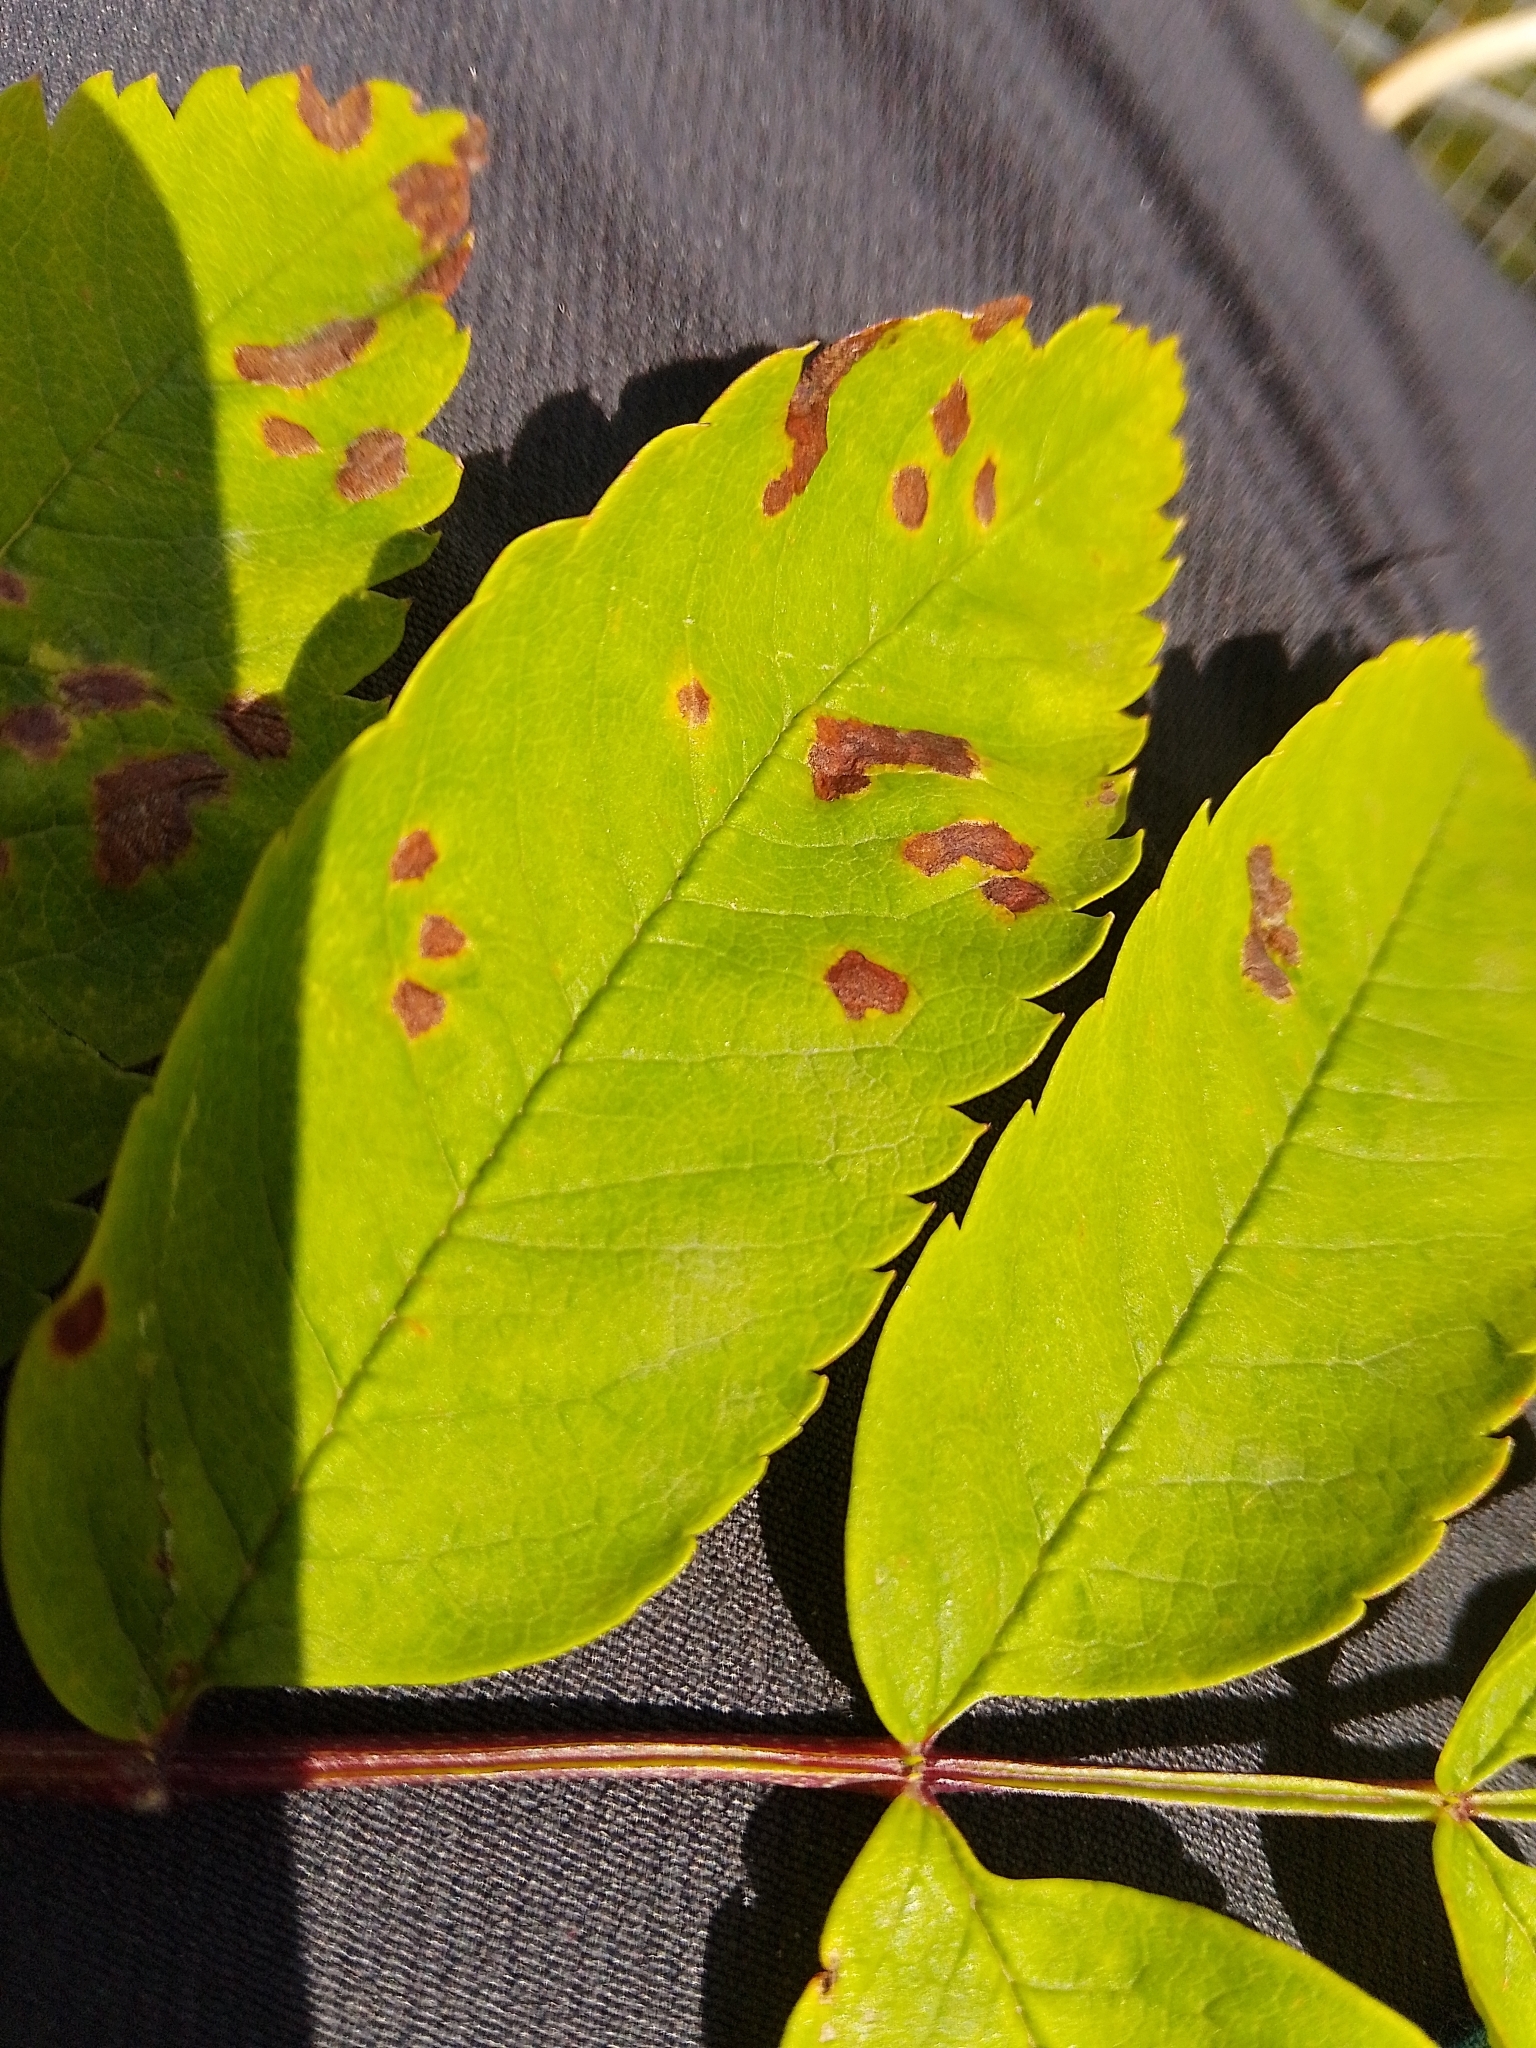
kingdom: Animalia
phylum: Arthropoda
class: Arachnida
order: Trombidiformes
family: Eriophyidae
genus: Phyllocoptes
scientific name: Phyllocoptes sorbeus
